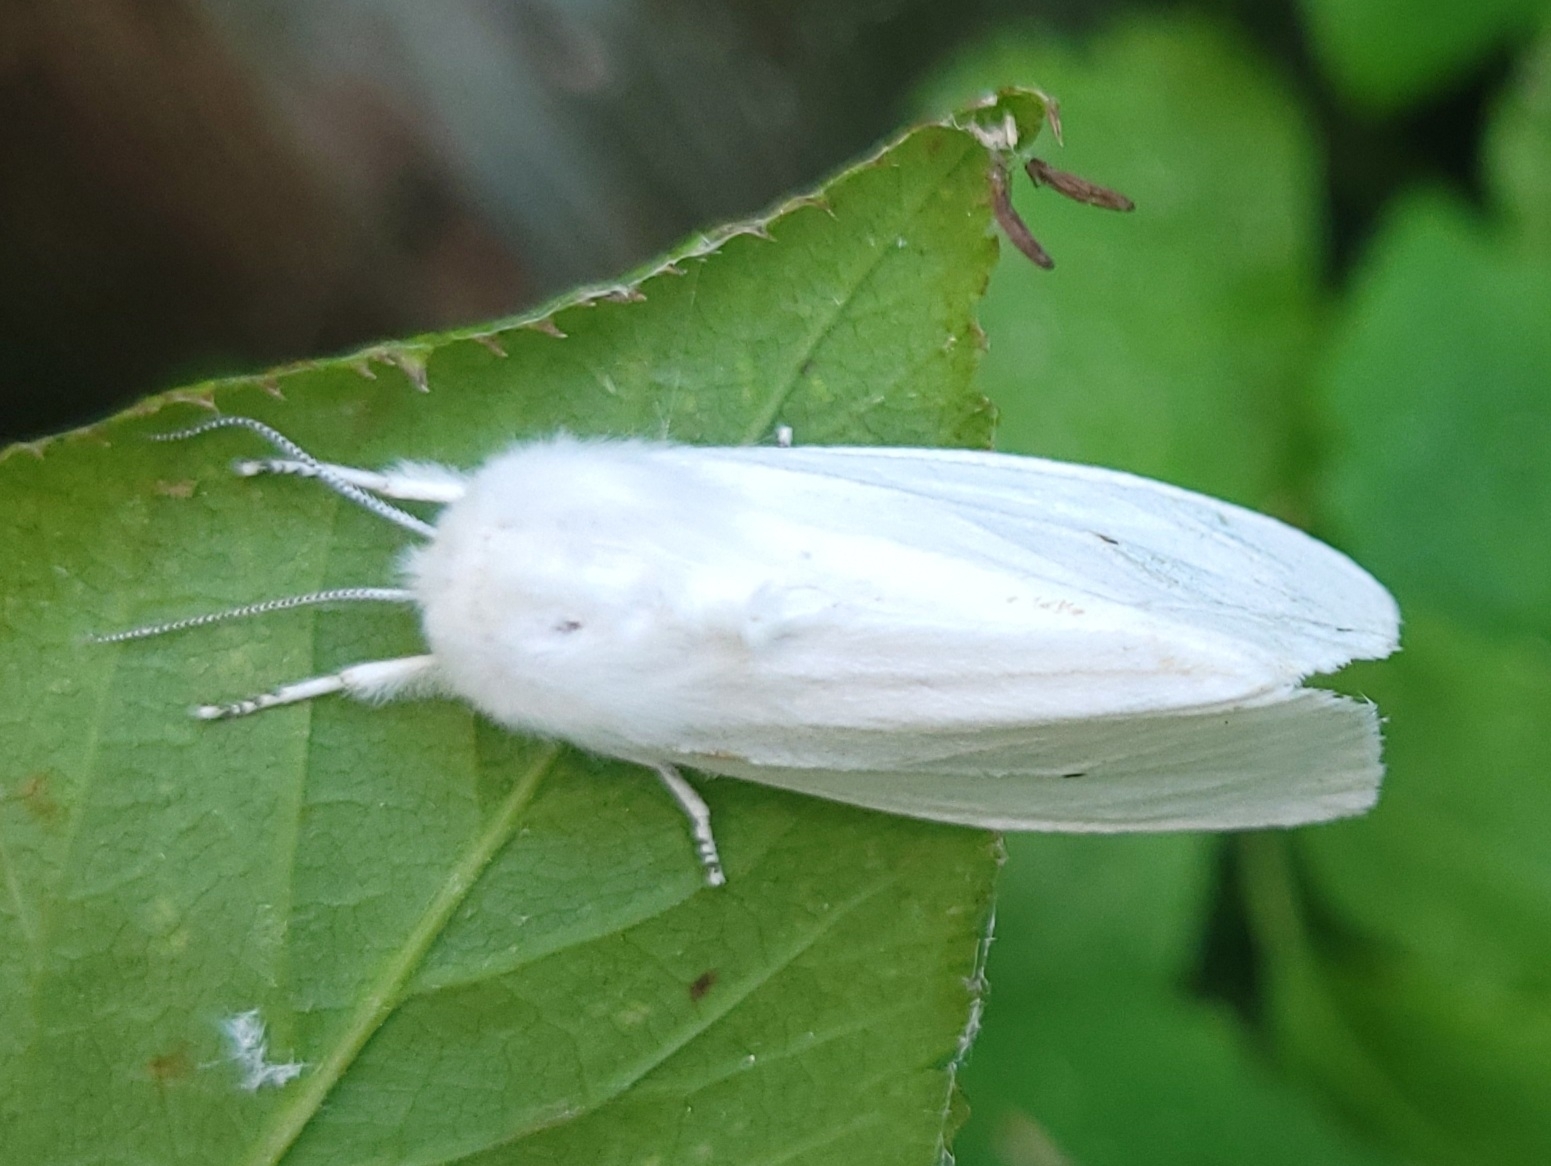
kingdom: Animalia
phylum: Arthropoda
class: Insecta
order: Lepidoptera
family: Erebidae
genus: Spilosoma
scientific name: Spilosoma virginica
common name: Virginia tiger moth
